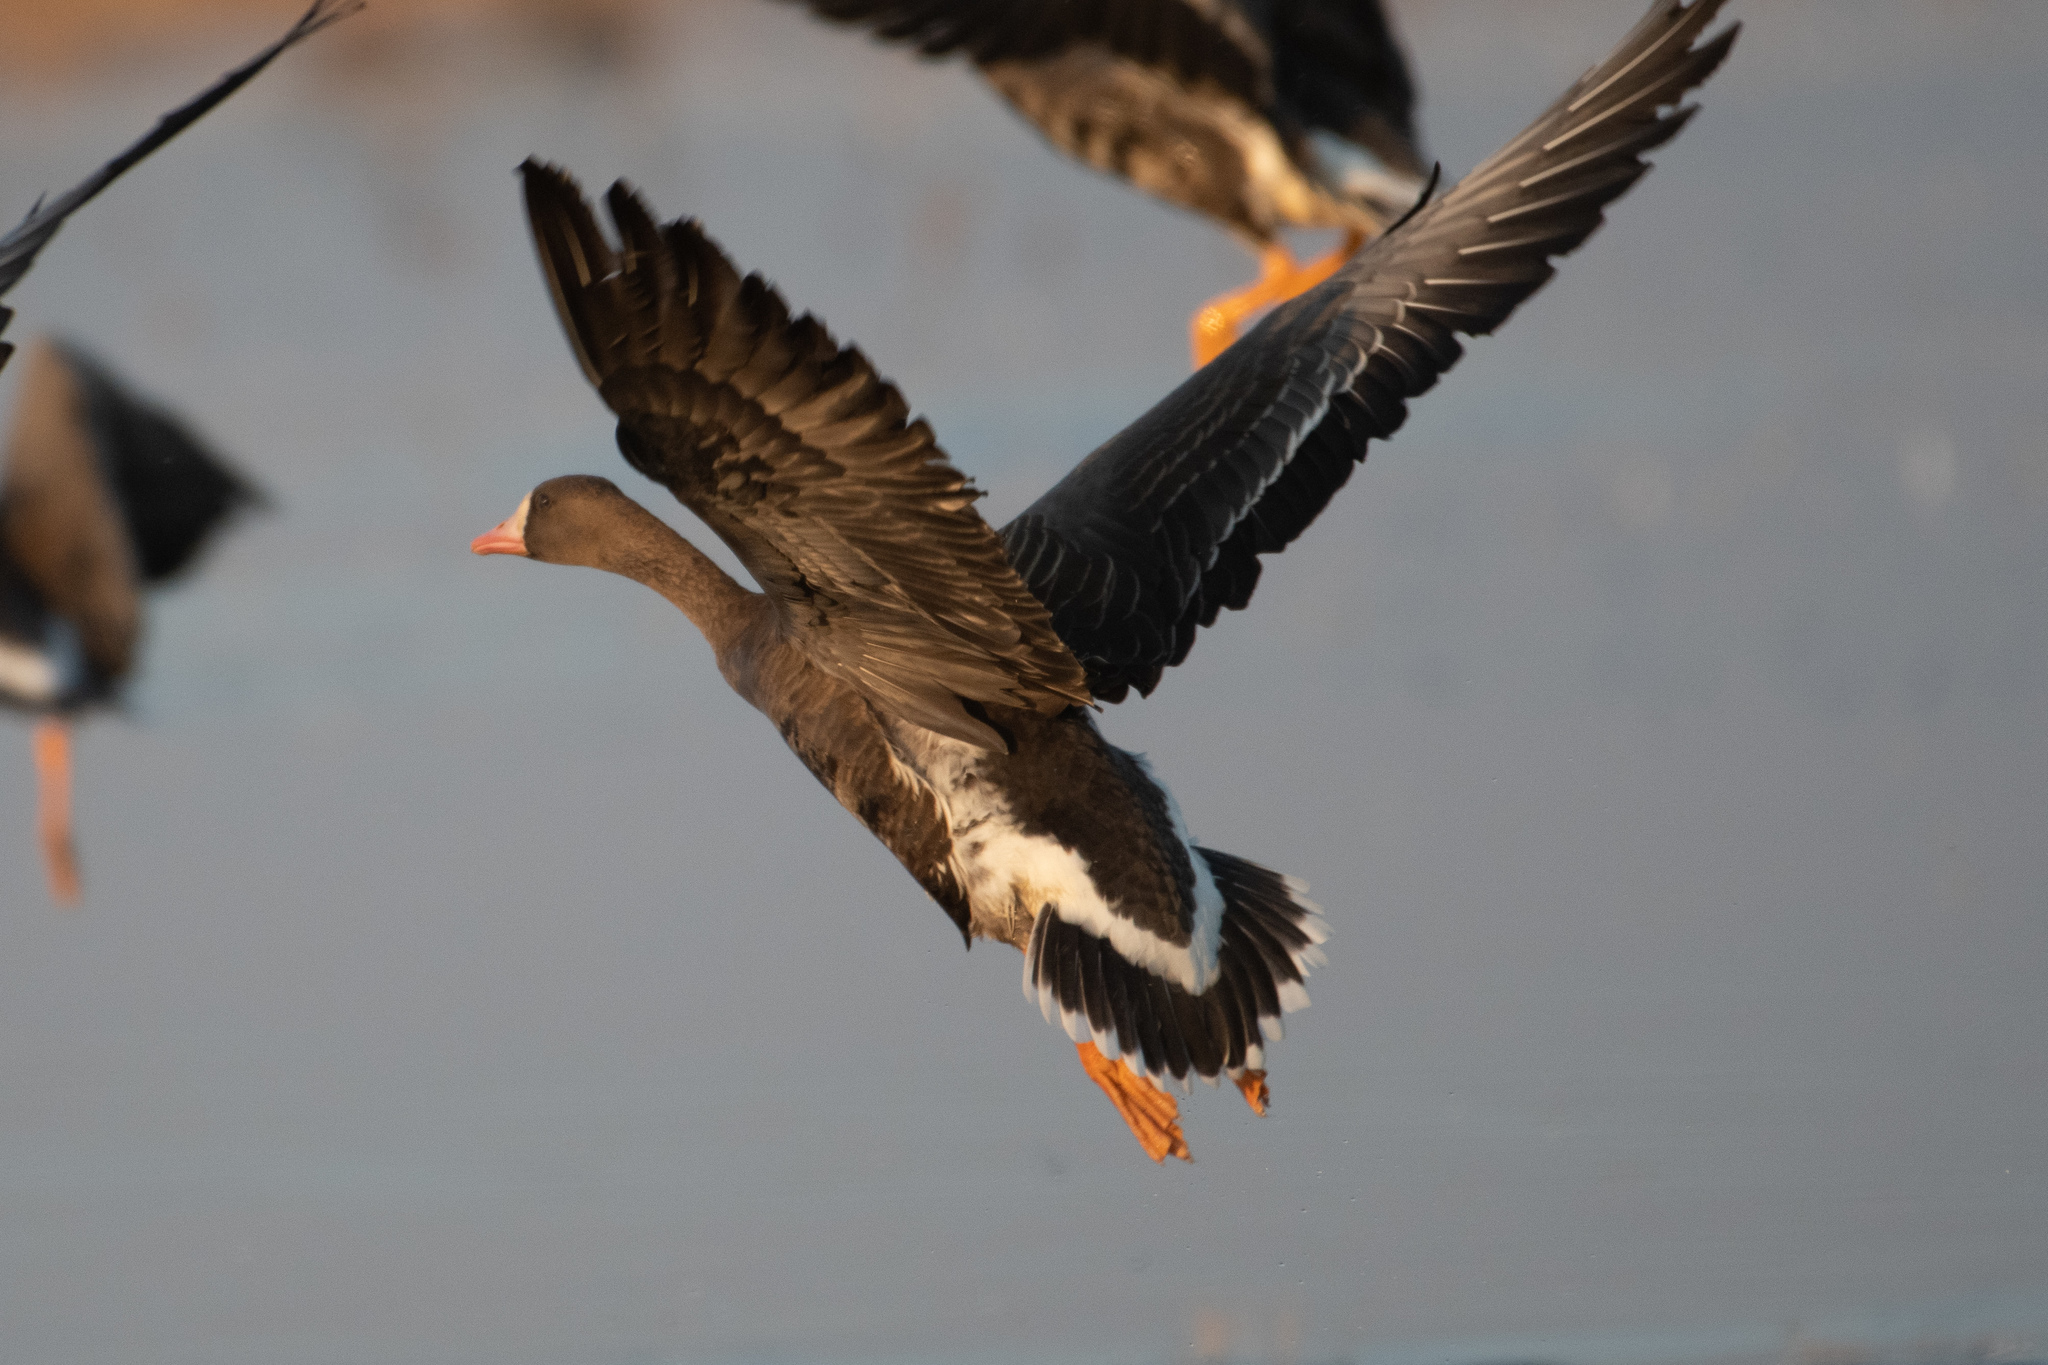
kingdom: Animalia
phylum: Chordata
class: Aves
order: Anseriformes
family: Anatidae
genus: Anser
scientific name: Anser albifrons
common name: Greater white-fronted goose
